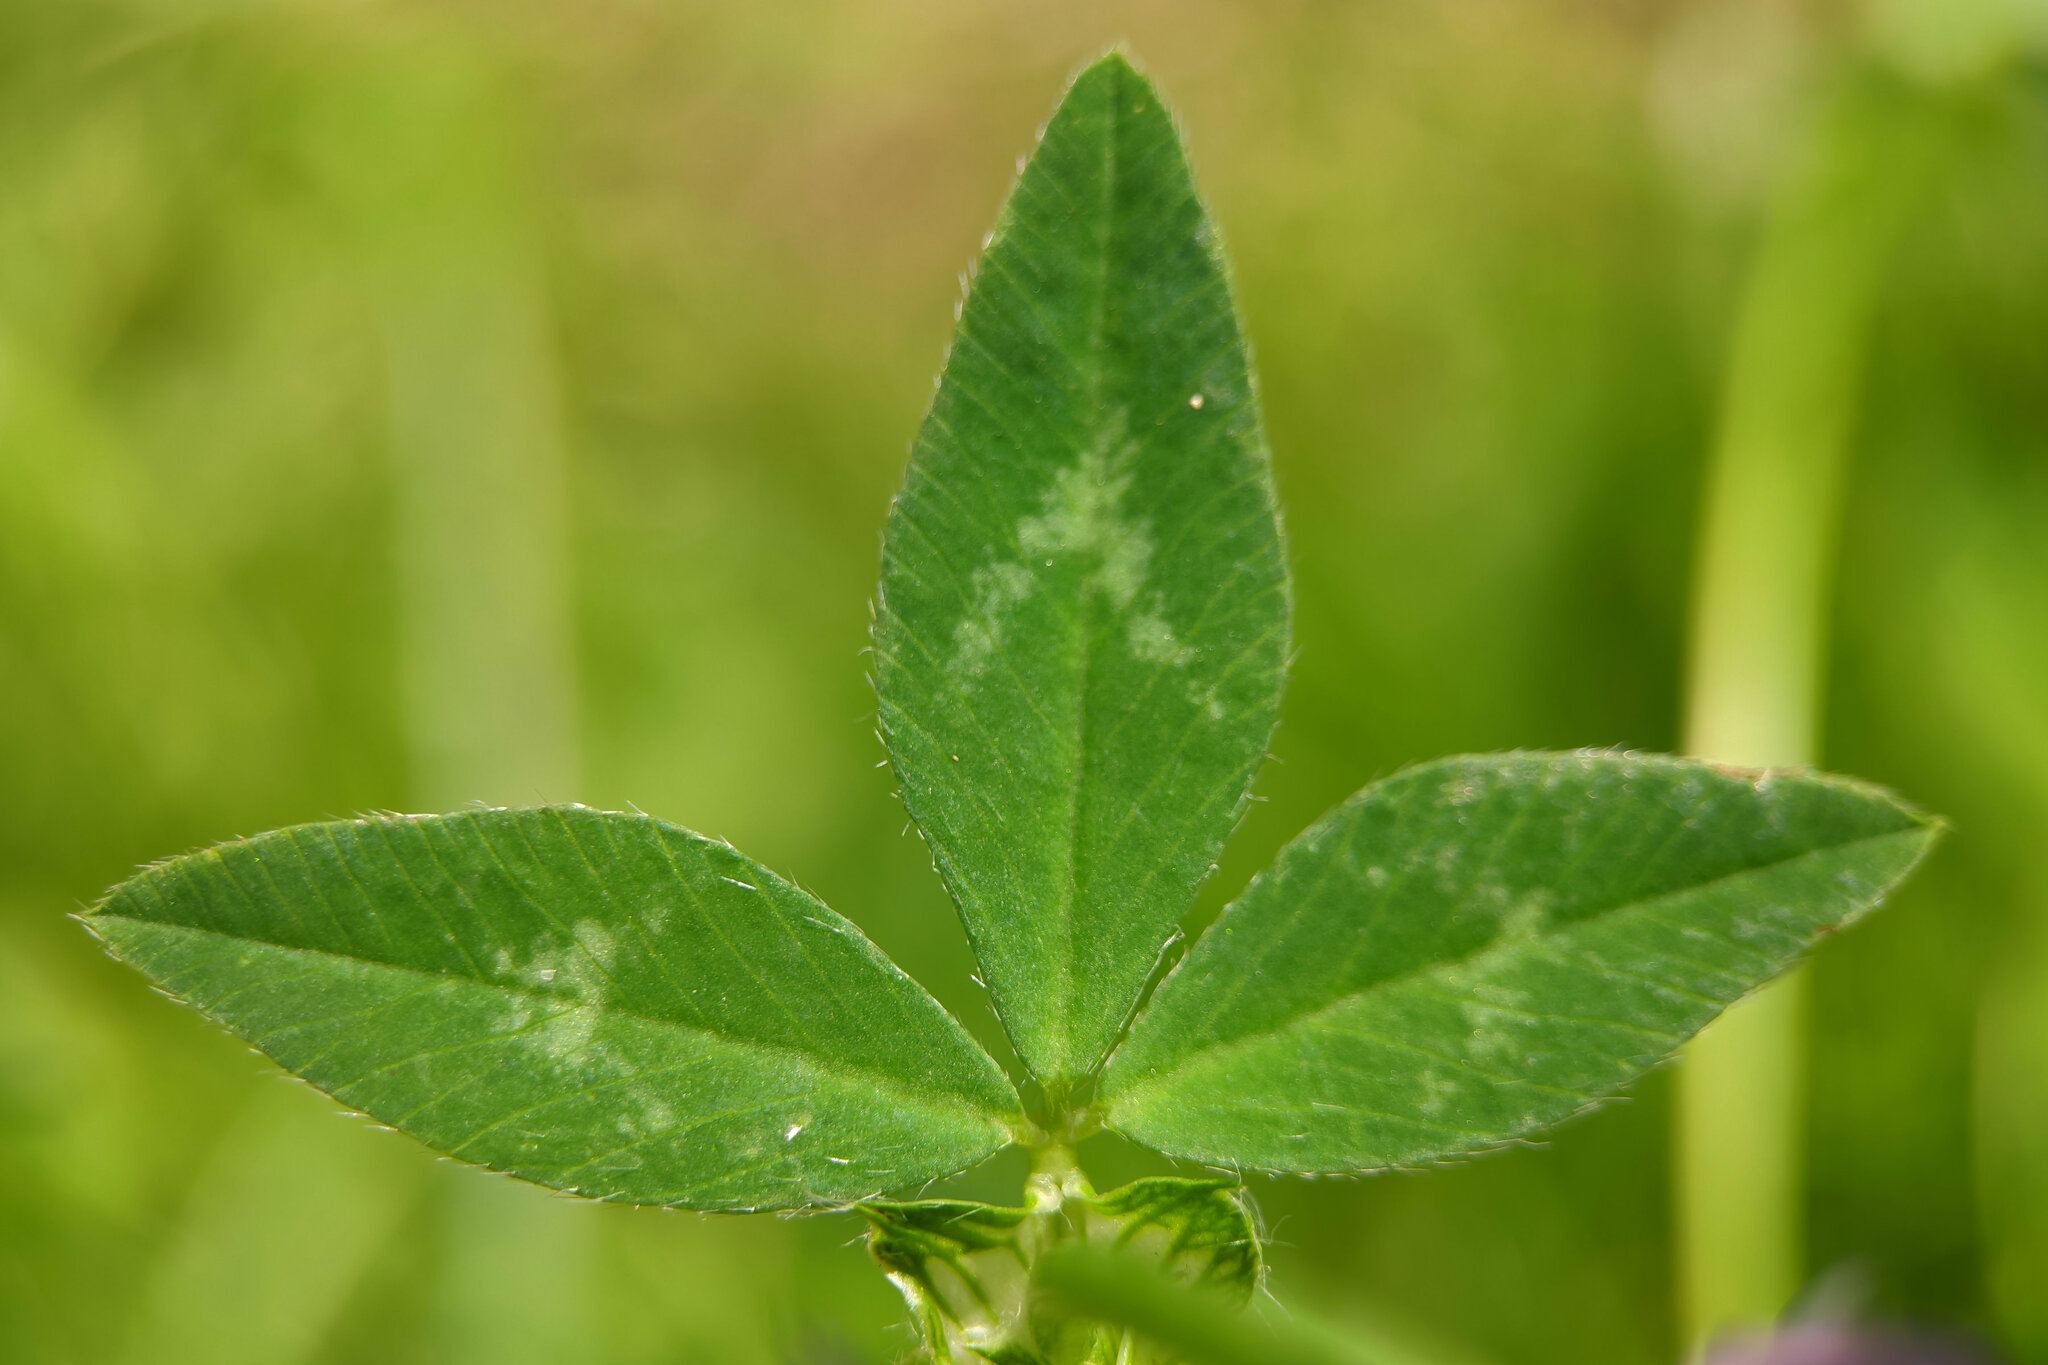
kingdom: Plantae
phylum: Tracheophyta
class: Magnoliopsida
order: Fabales
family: Fabaceae
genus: Trifolium
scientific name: Trifolium pratense
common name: Red clover
